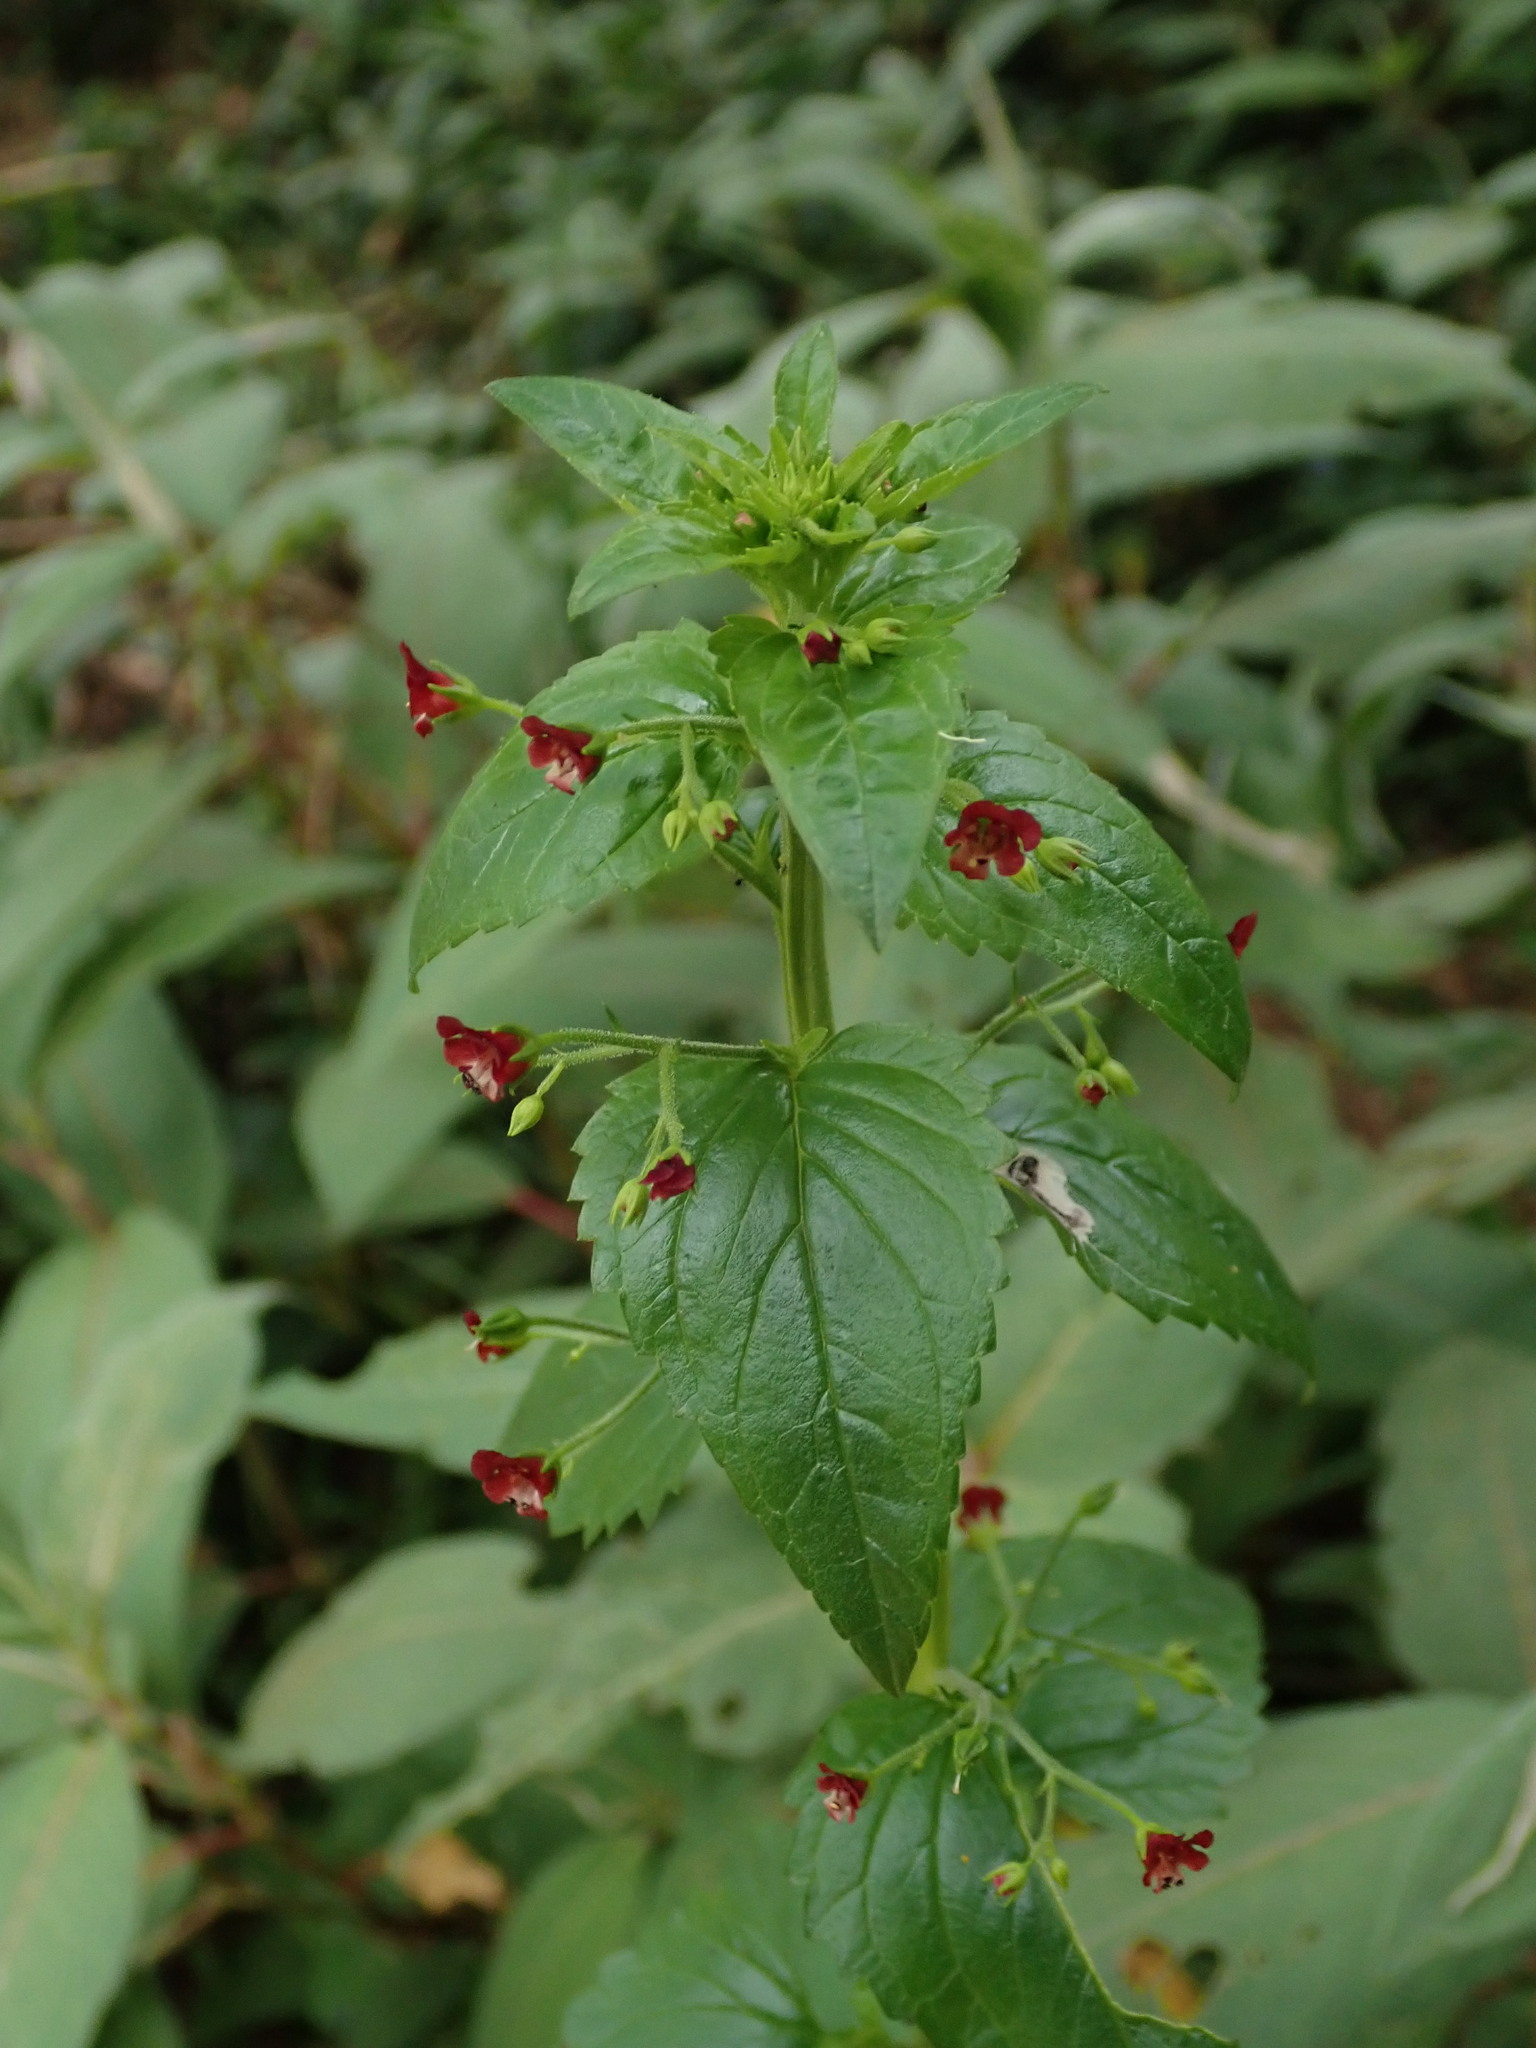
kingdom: Plantae
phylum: Tracheophyta
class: Magnoliopsida
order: Lamiales
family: Scrophulariaceae
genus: Scrophularia
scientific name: Scrophularia peregrina
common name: Mediterranean figwort
